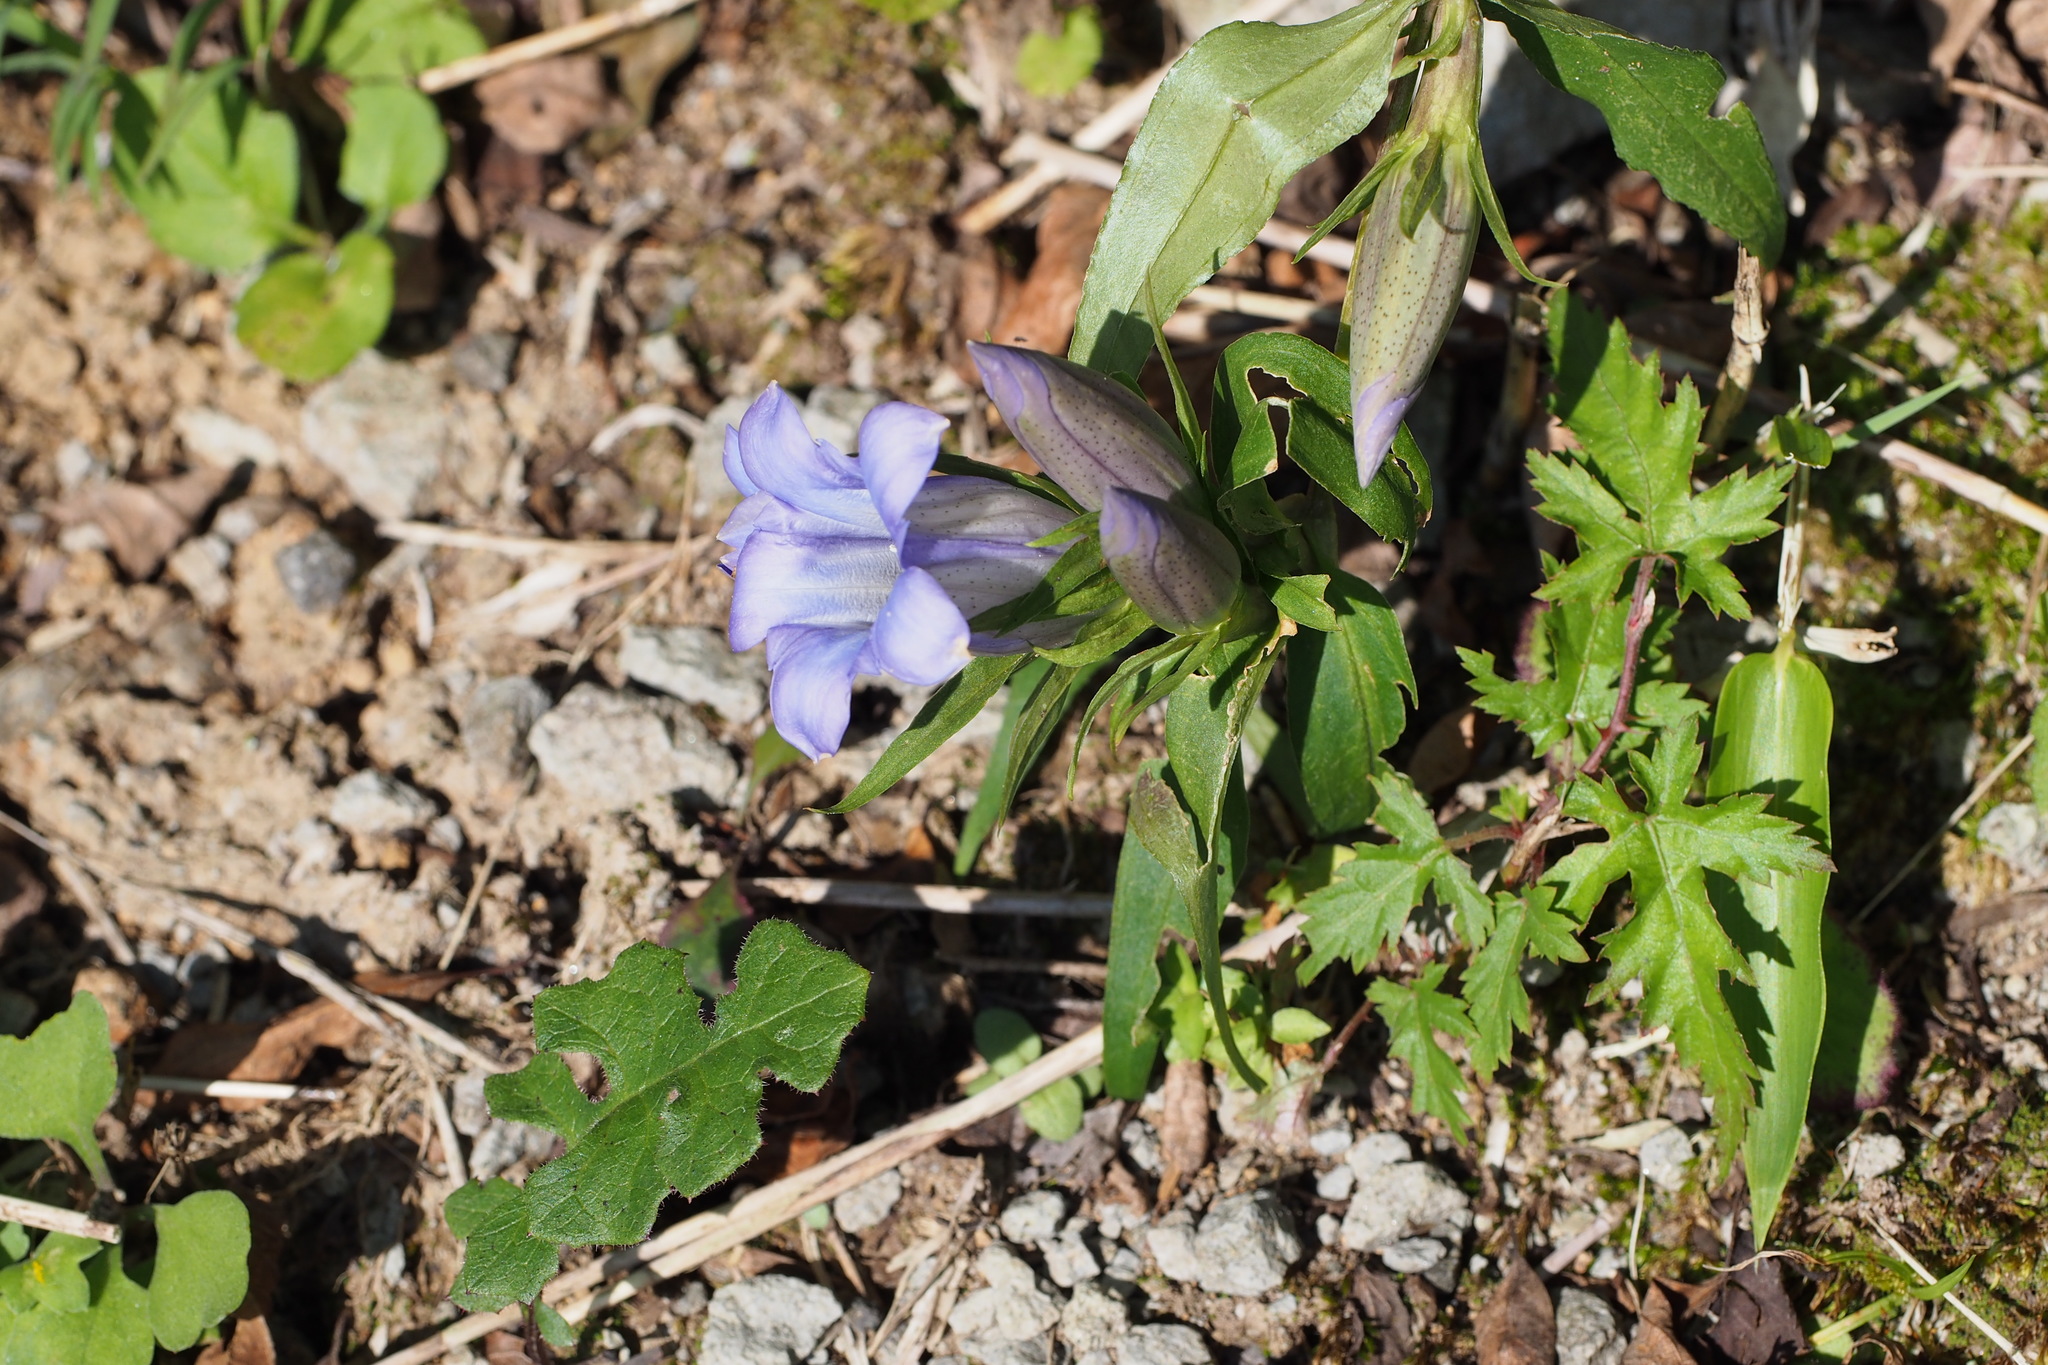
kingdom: Plantae
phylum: Tracheophyta
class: Magnoliopsida
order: Gentianales
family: Gentianaceae
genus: Gentiana
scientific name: Gentiana scabra
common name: Scabrous gentian
